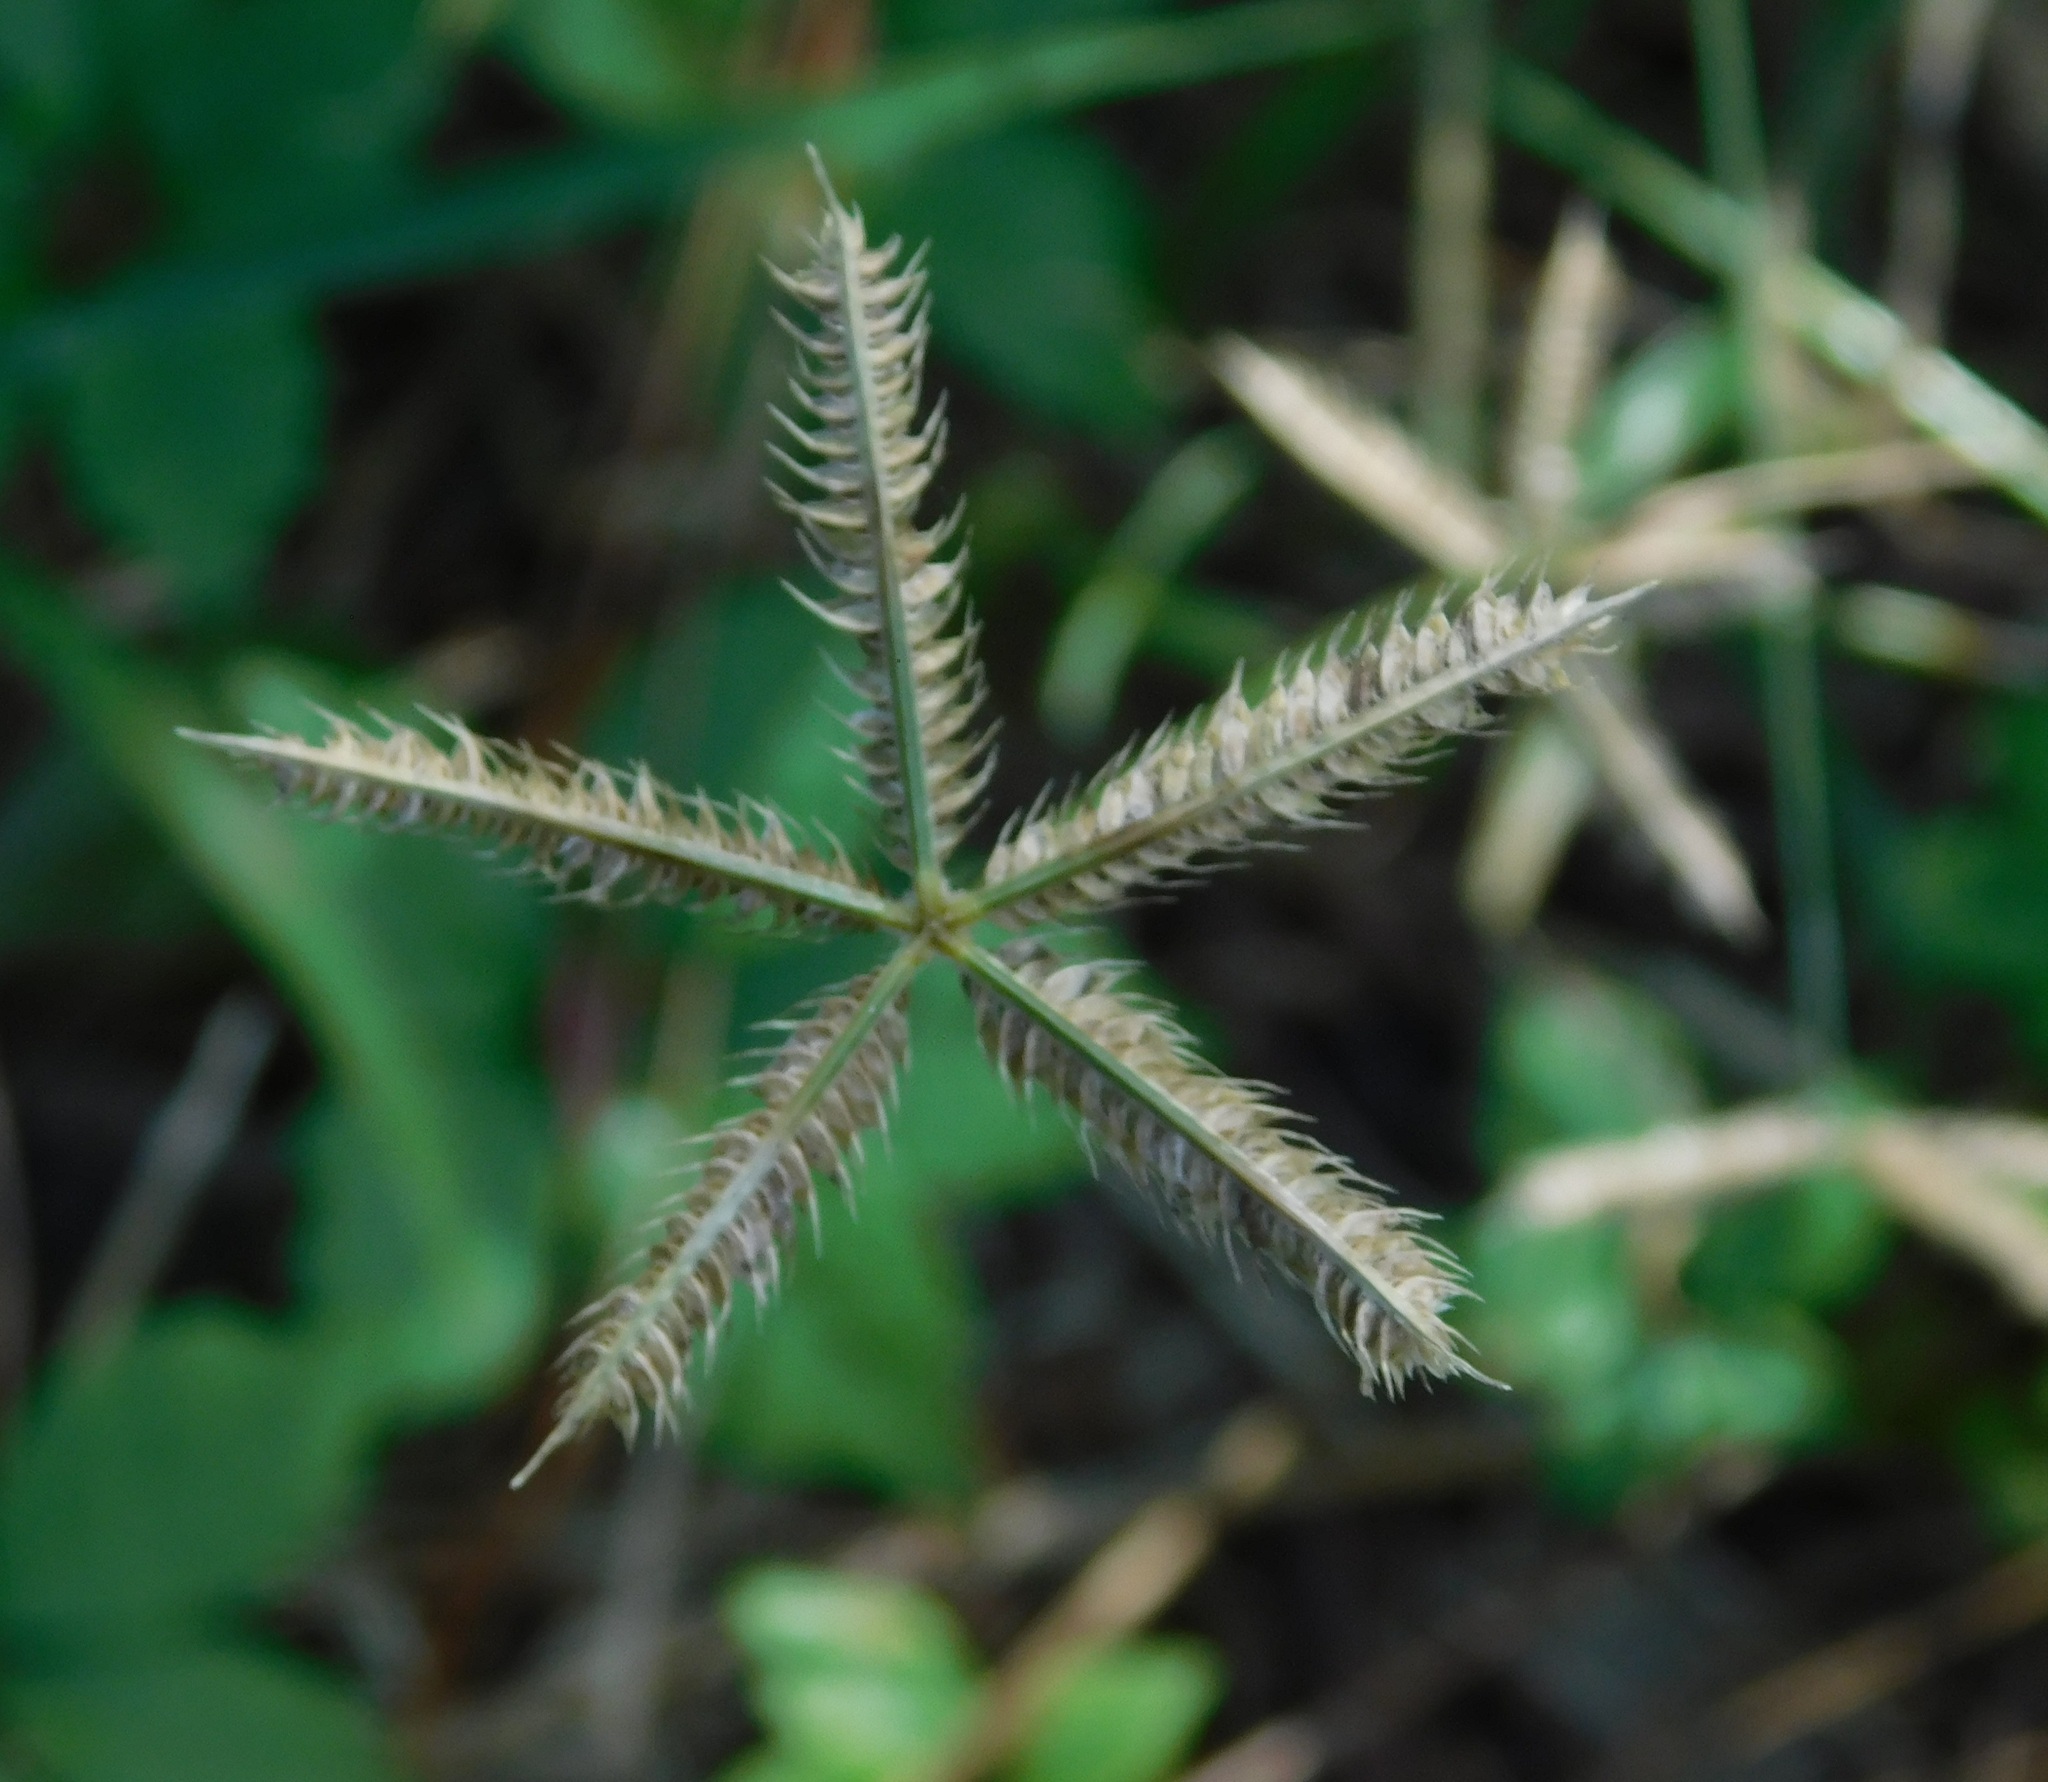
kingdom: Plantae
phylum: Tracheophyta
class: Liliopsida
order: Poales
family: Poaceae
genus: Dactyloctenium
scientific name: Dactyloctenium aegyptium
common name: Egyptian grass
